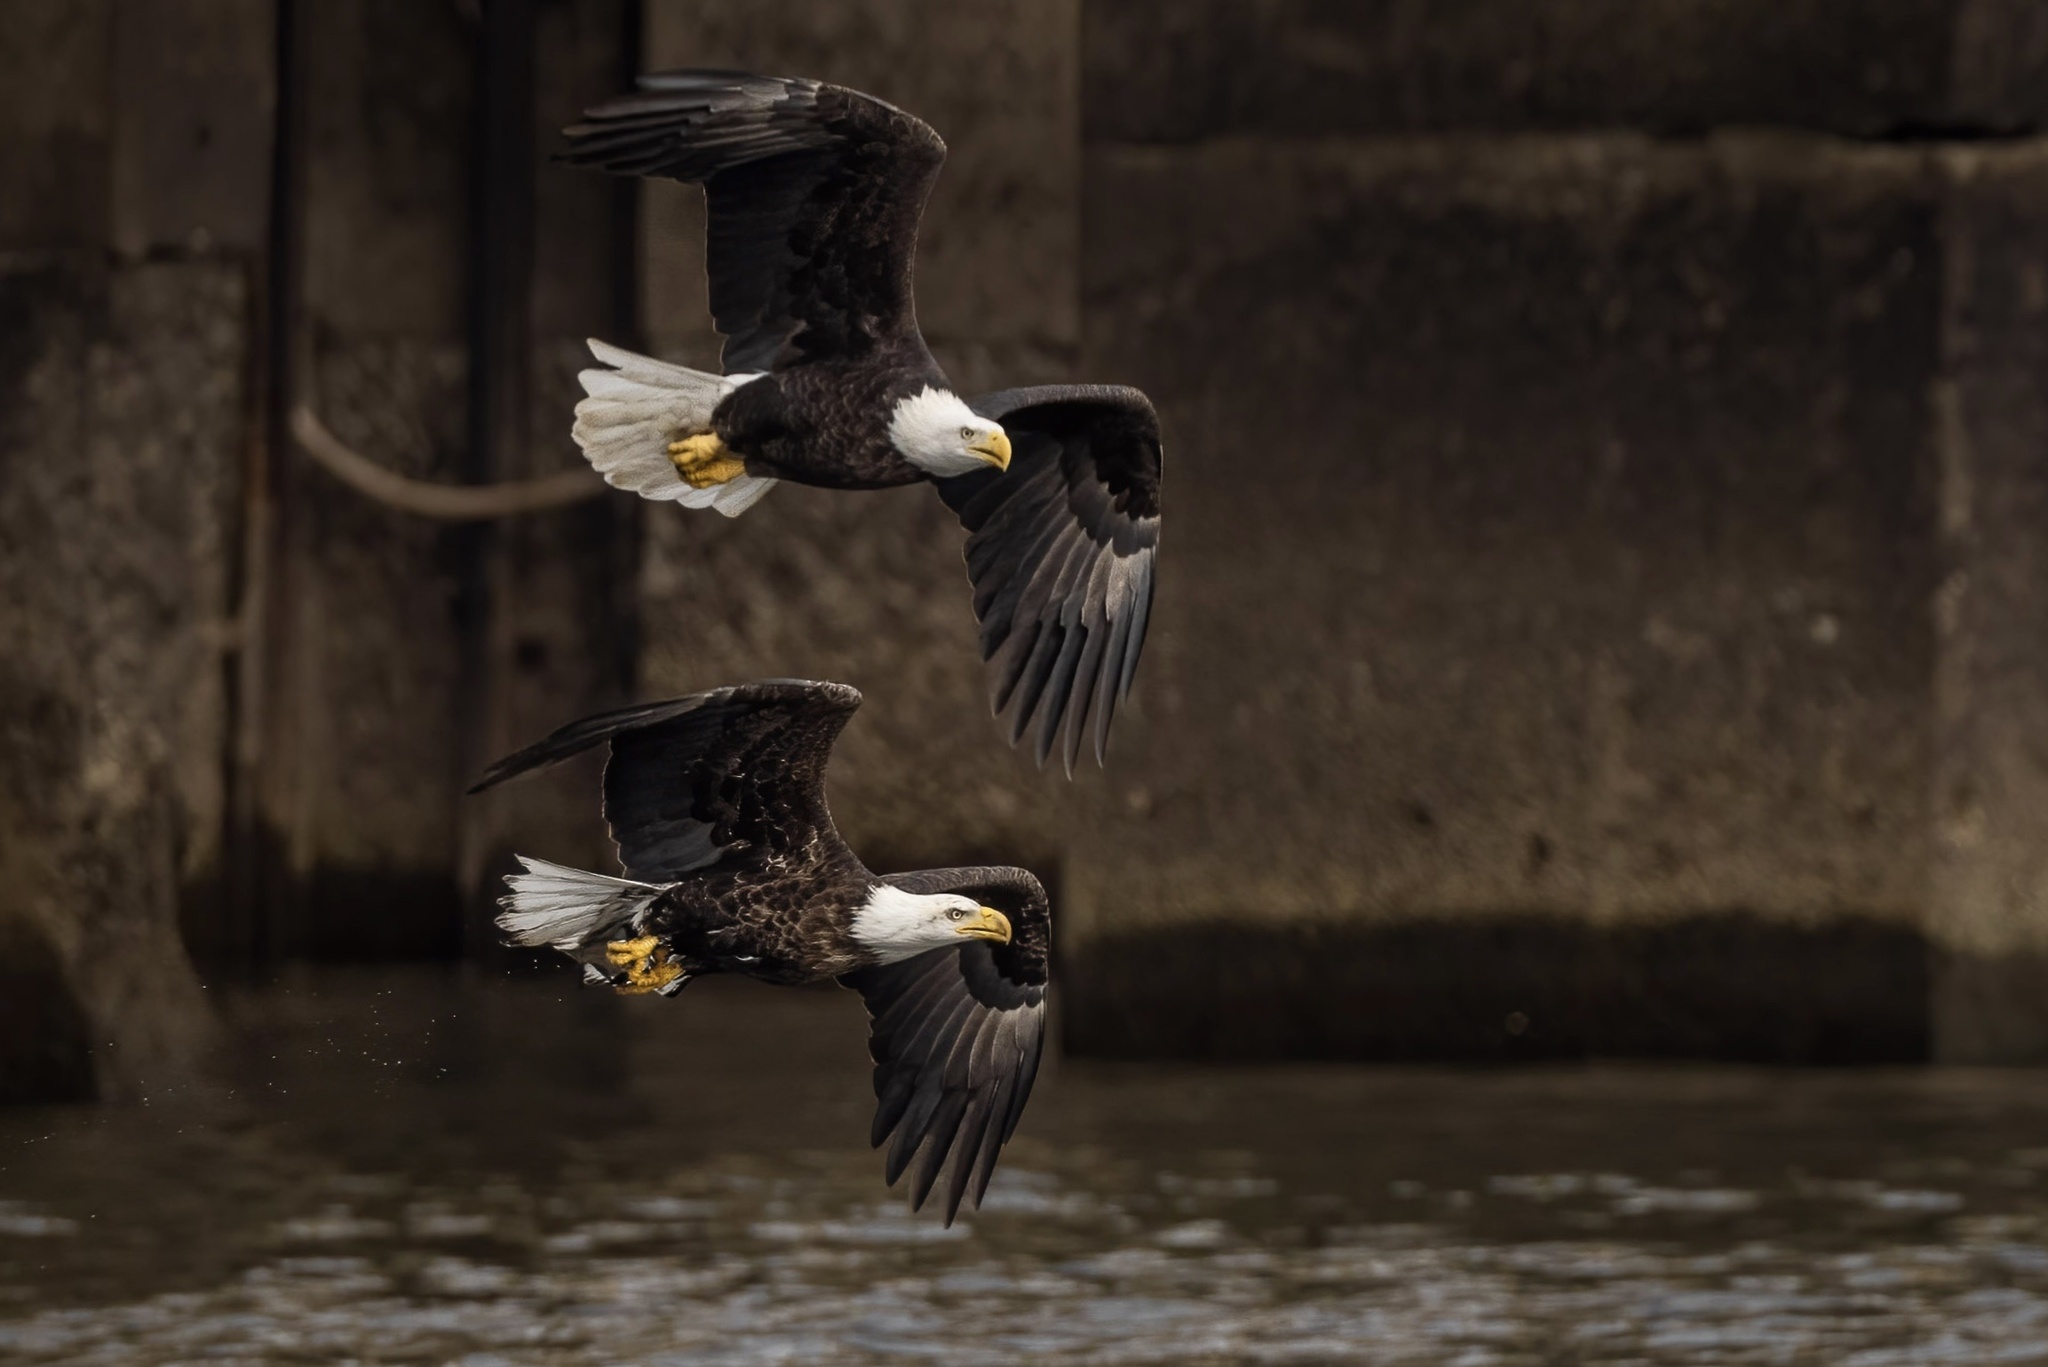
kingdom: Animalia
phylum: Chordata
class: Aves
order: Accipitriformes
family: Accipitridae
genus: Haliaeetus
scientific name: Haliaeetus leucocephalus
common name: Bald eagle
